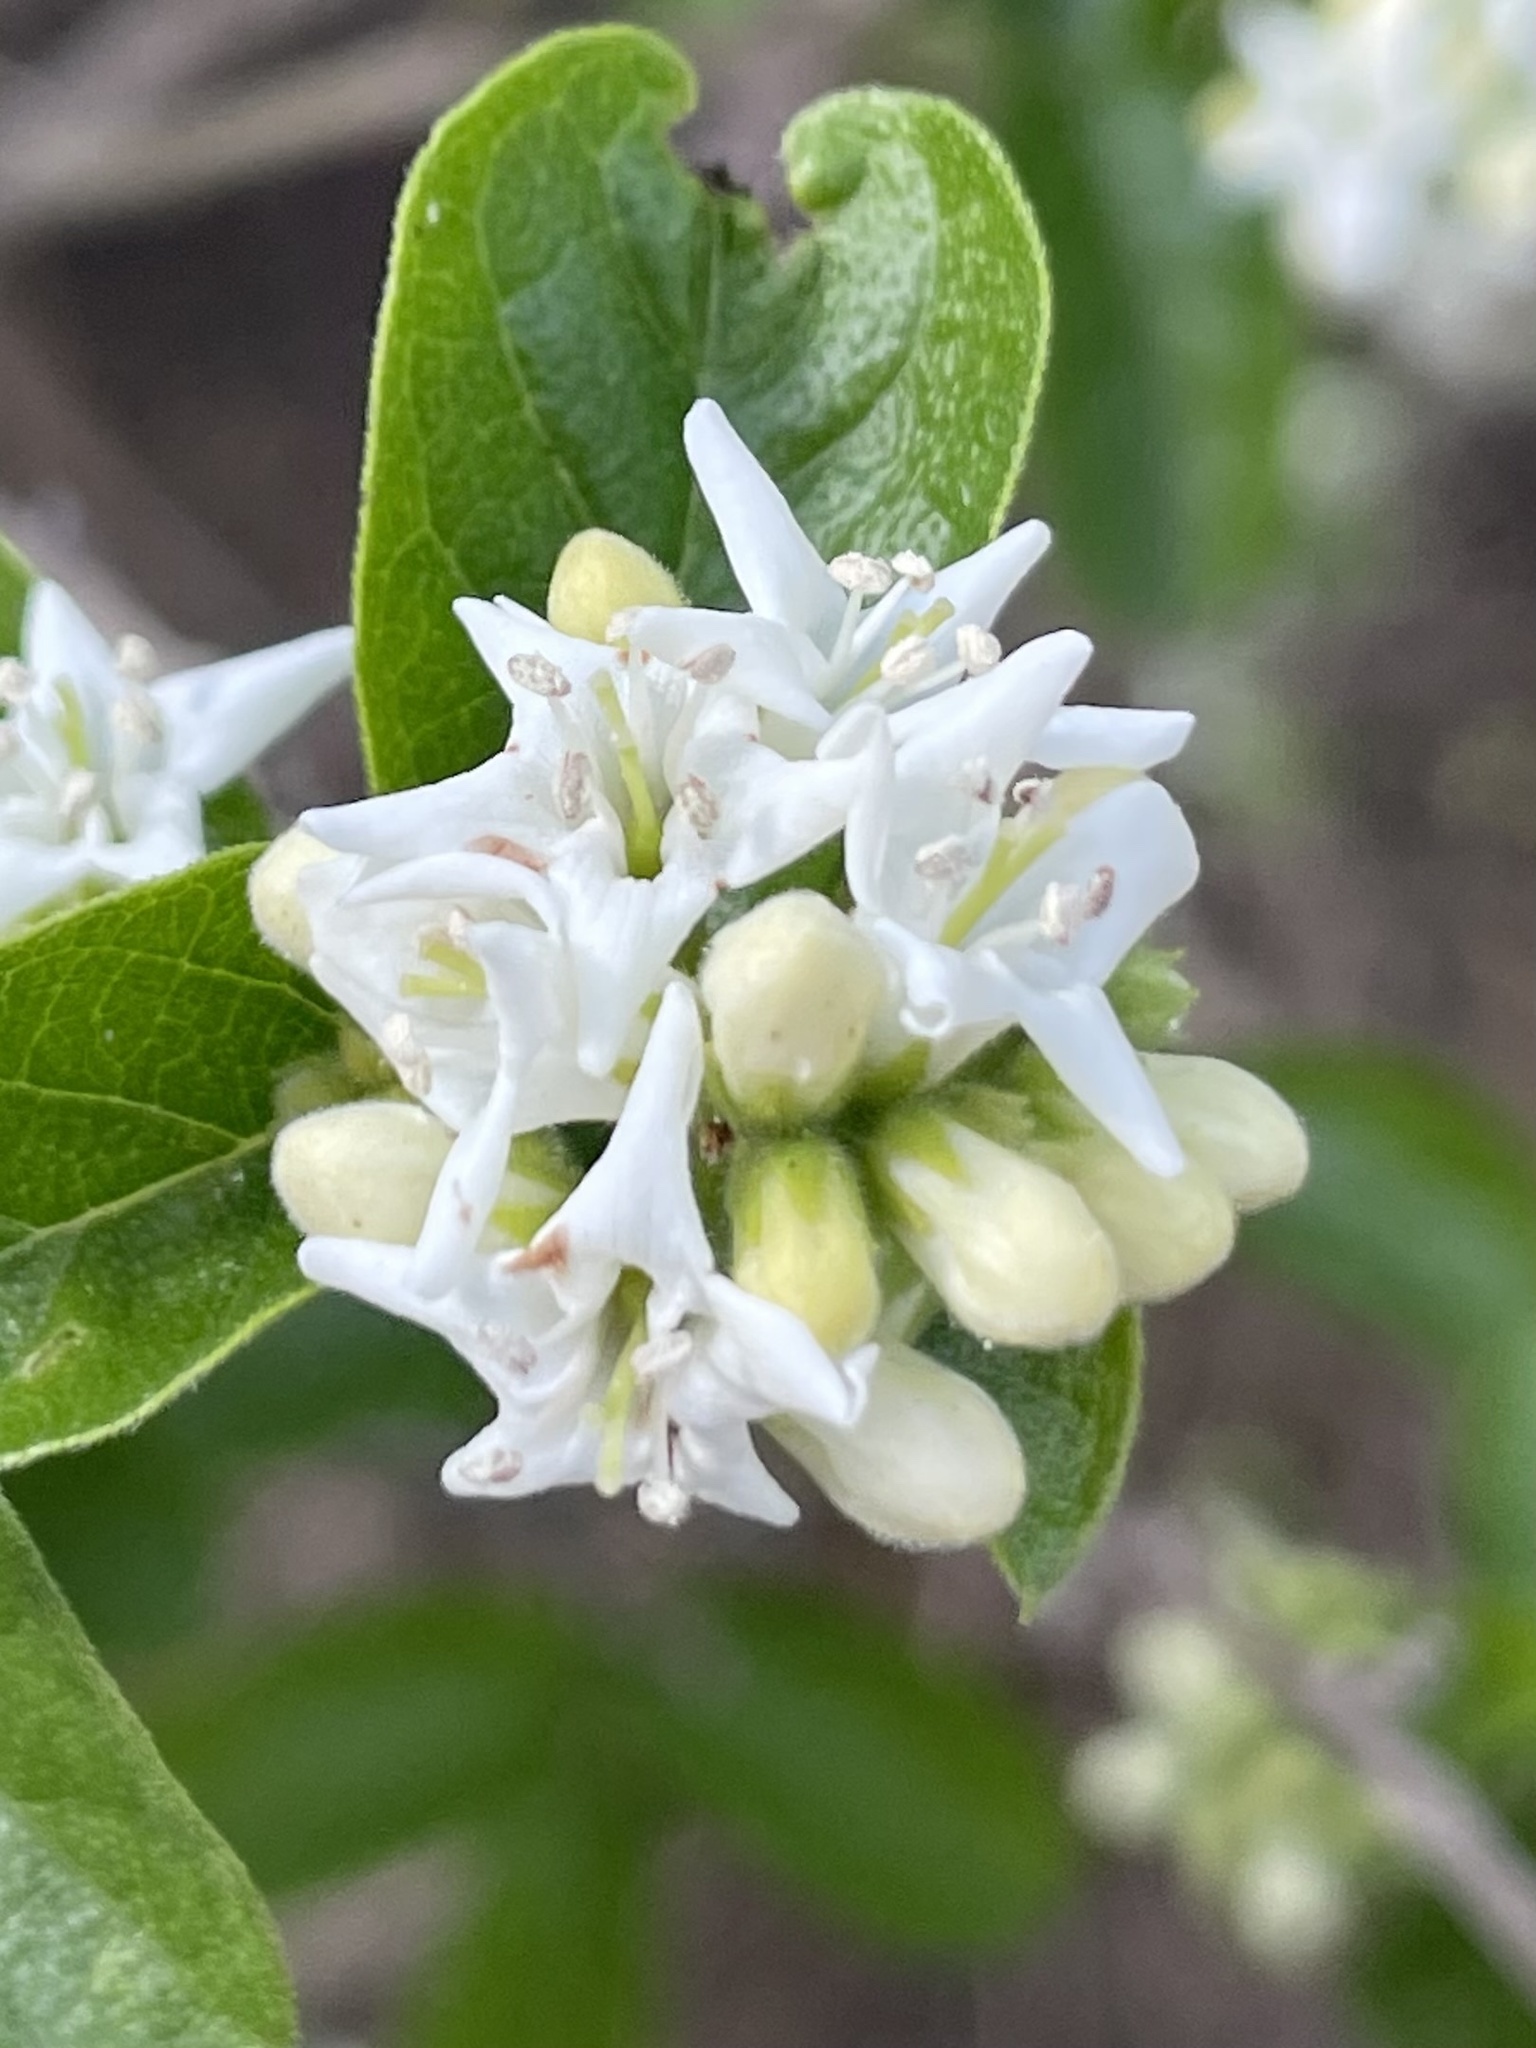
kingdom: Plantae
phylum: Tracheophyta
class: Magnoliopsida
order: Boraginales
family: Ehretiaceae
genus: Ehretia
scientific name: Ehretia anacua
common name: Sugarberry
